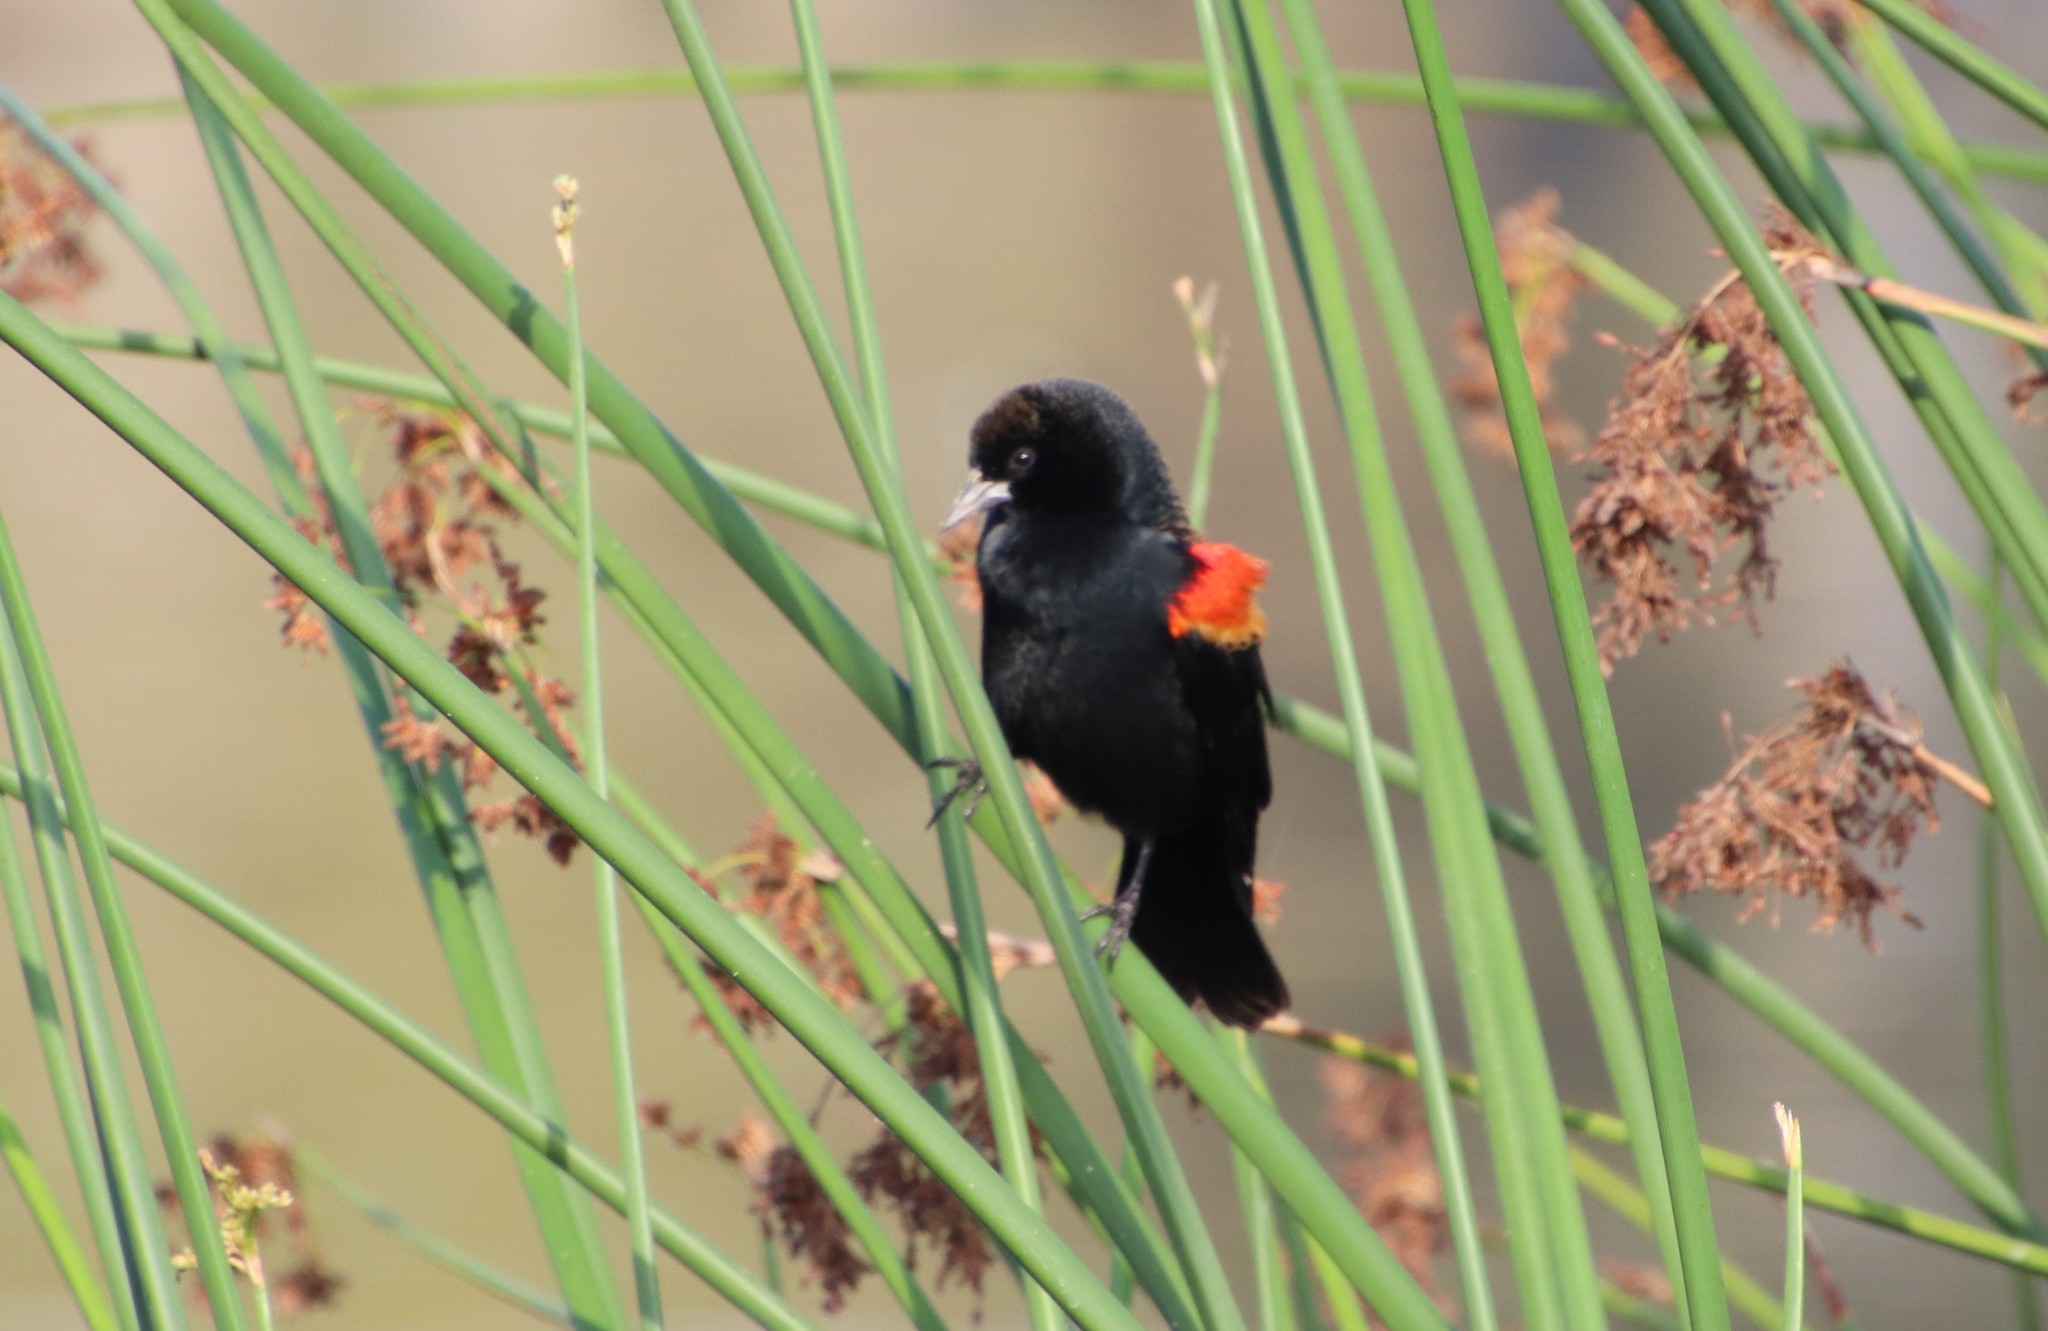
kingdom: Animalia
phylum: Chordata
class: Aves
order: Passeriformes
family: Icteridae
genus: Agelaius
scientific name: Agelaius phoeniceus
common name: Red-winged blackbird
